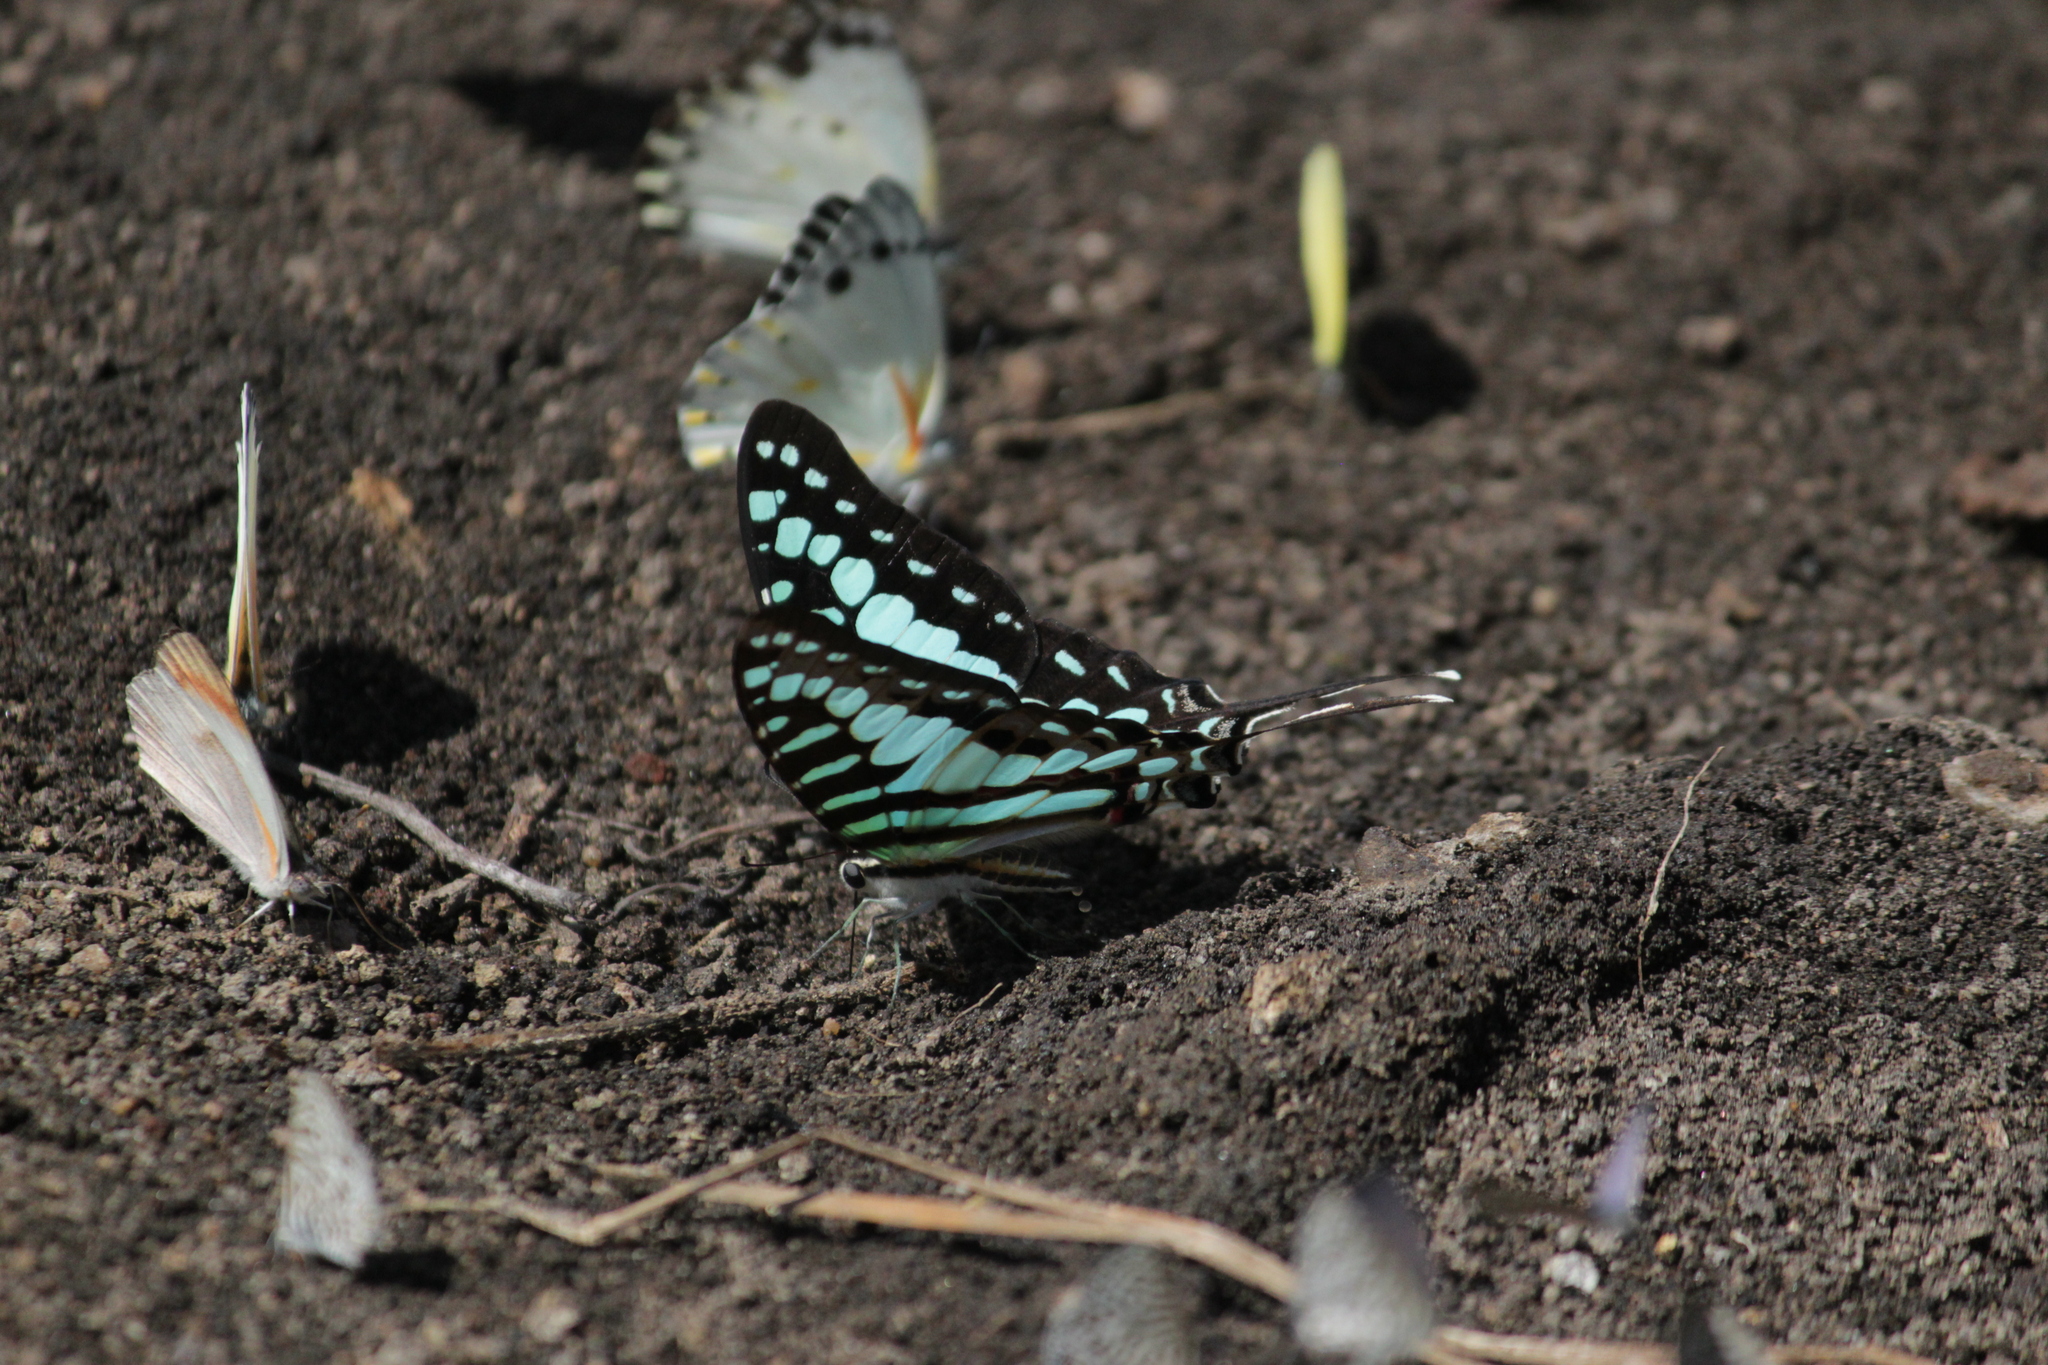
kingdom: Animalia
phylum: Arthropoda
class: Insecta
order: Lepidoptera
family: Papilionidae
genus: Graphium
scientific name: Graphium policenes
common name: Common swordtail
